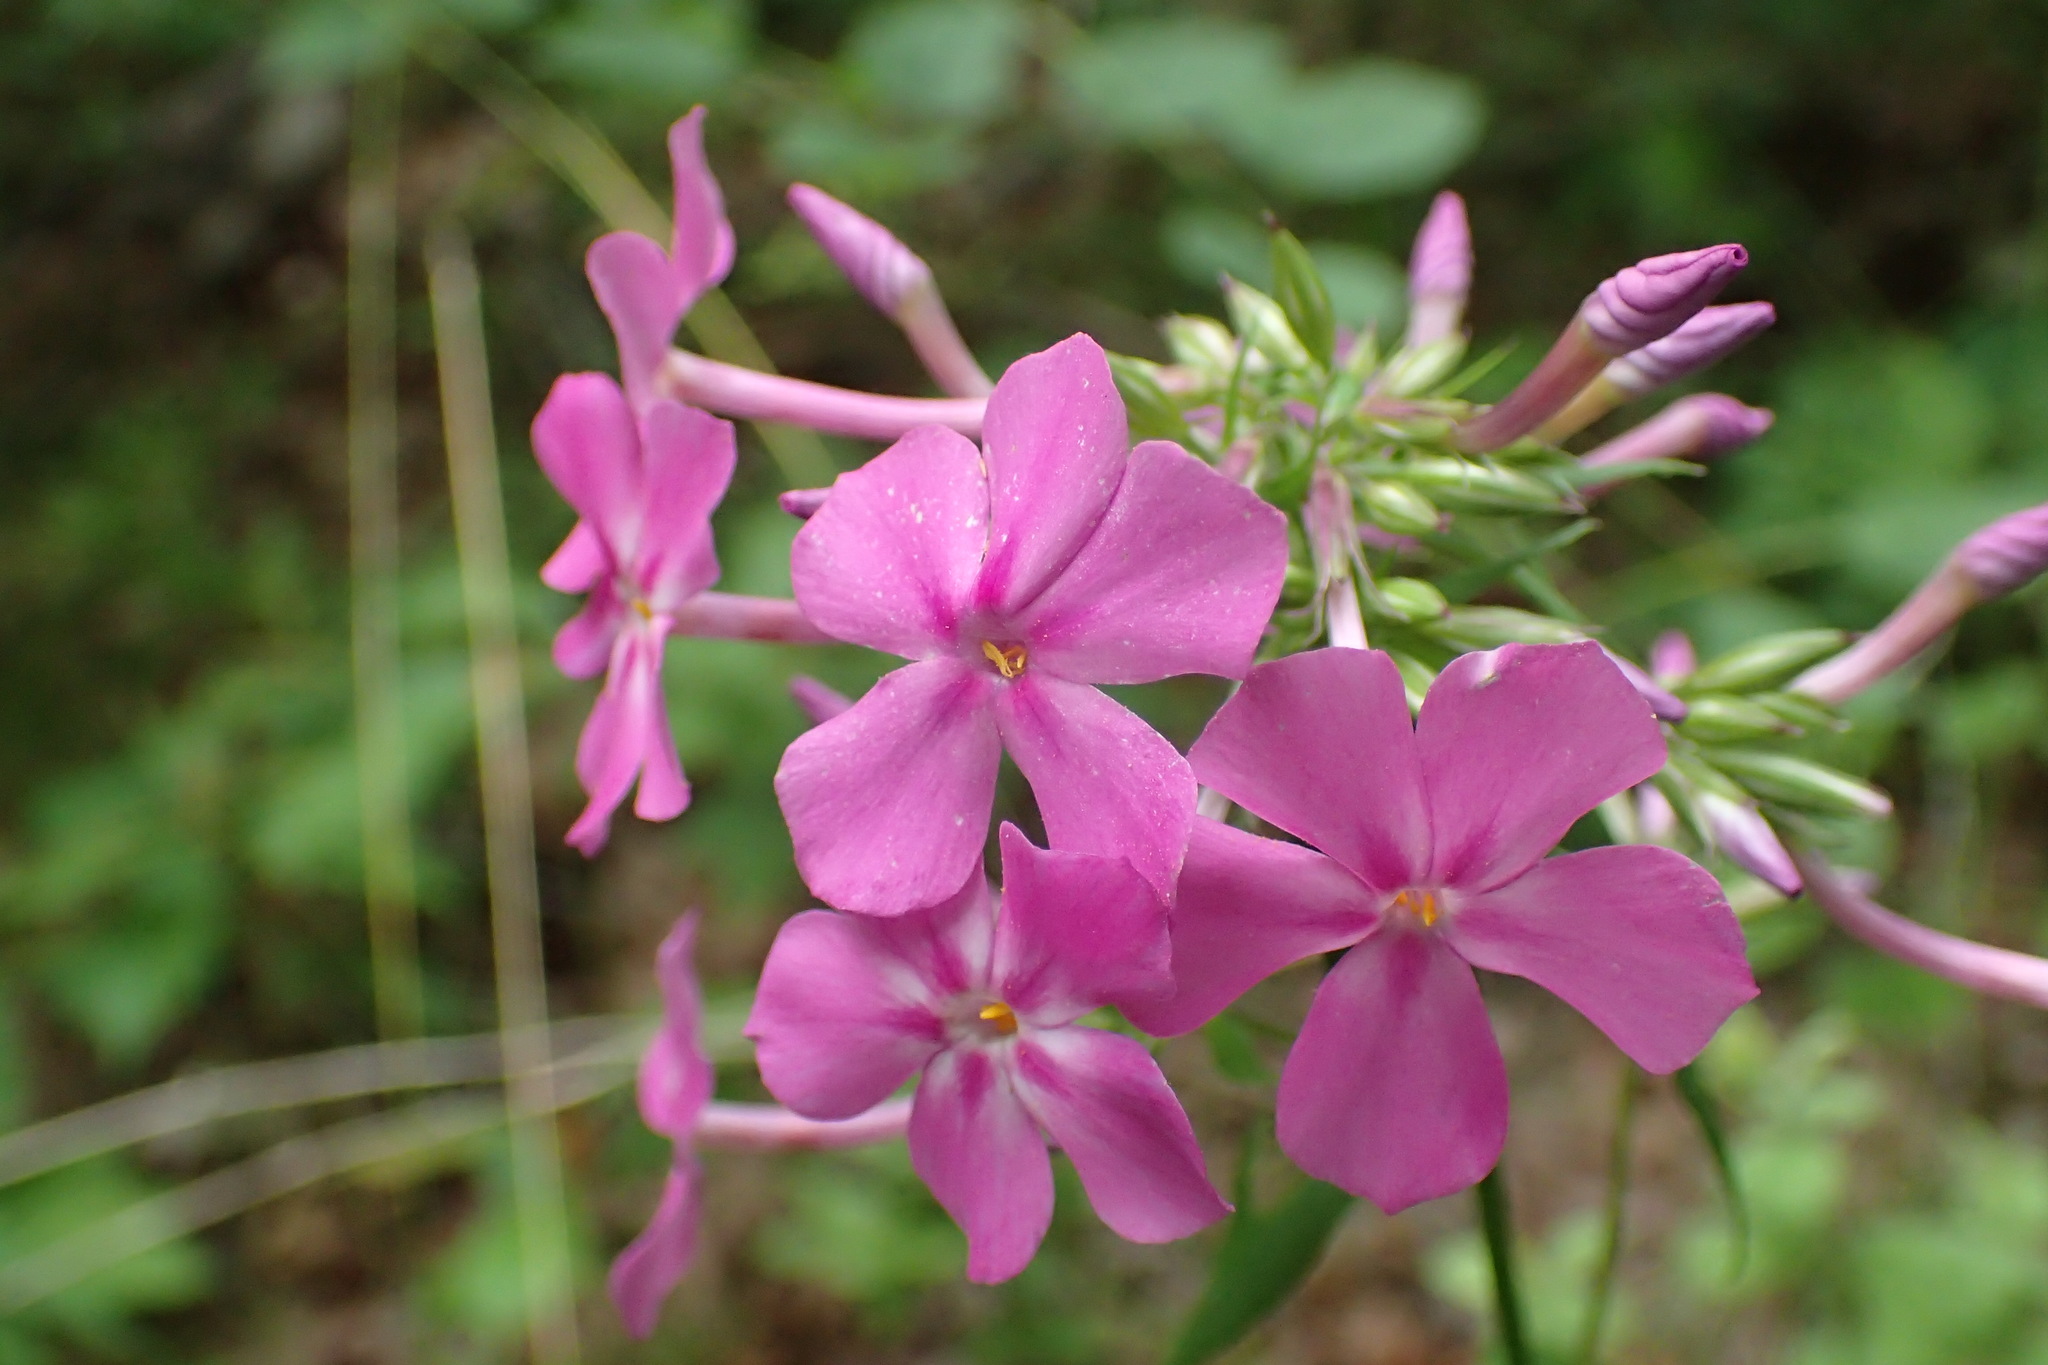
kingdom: Plantae
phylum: Tracheophyta
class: Magnoliopsida
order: Ericales
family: Polemoniaceae
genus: Phlox
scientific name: Phlox carolina
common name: Thick-leaf phlox
